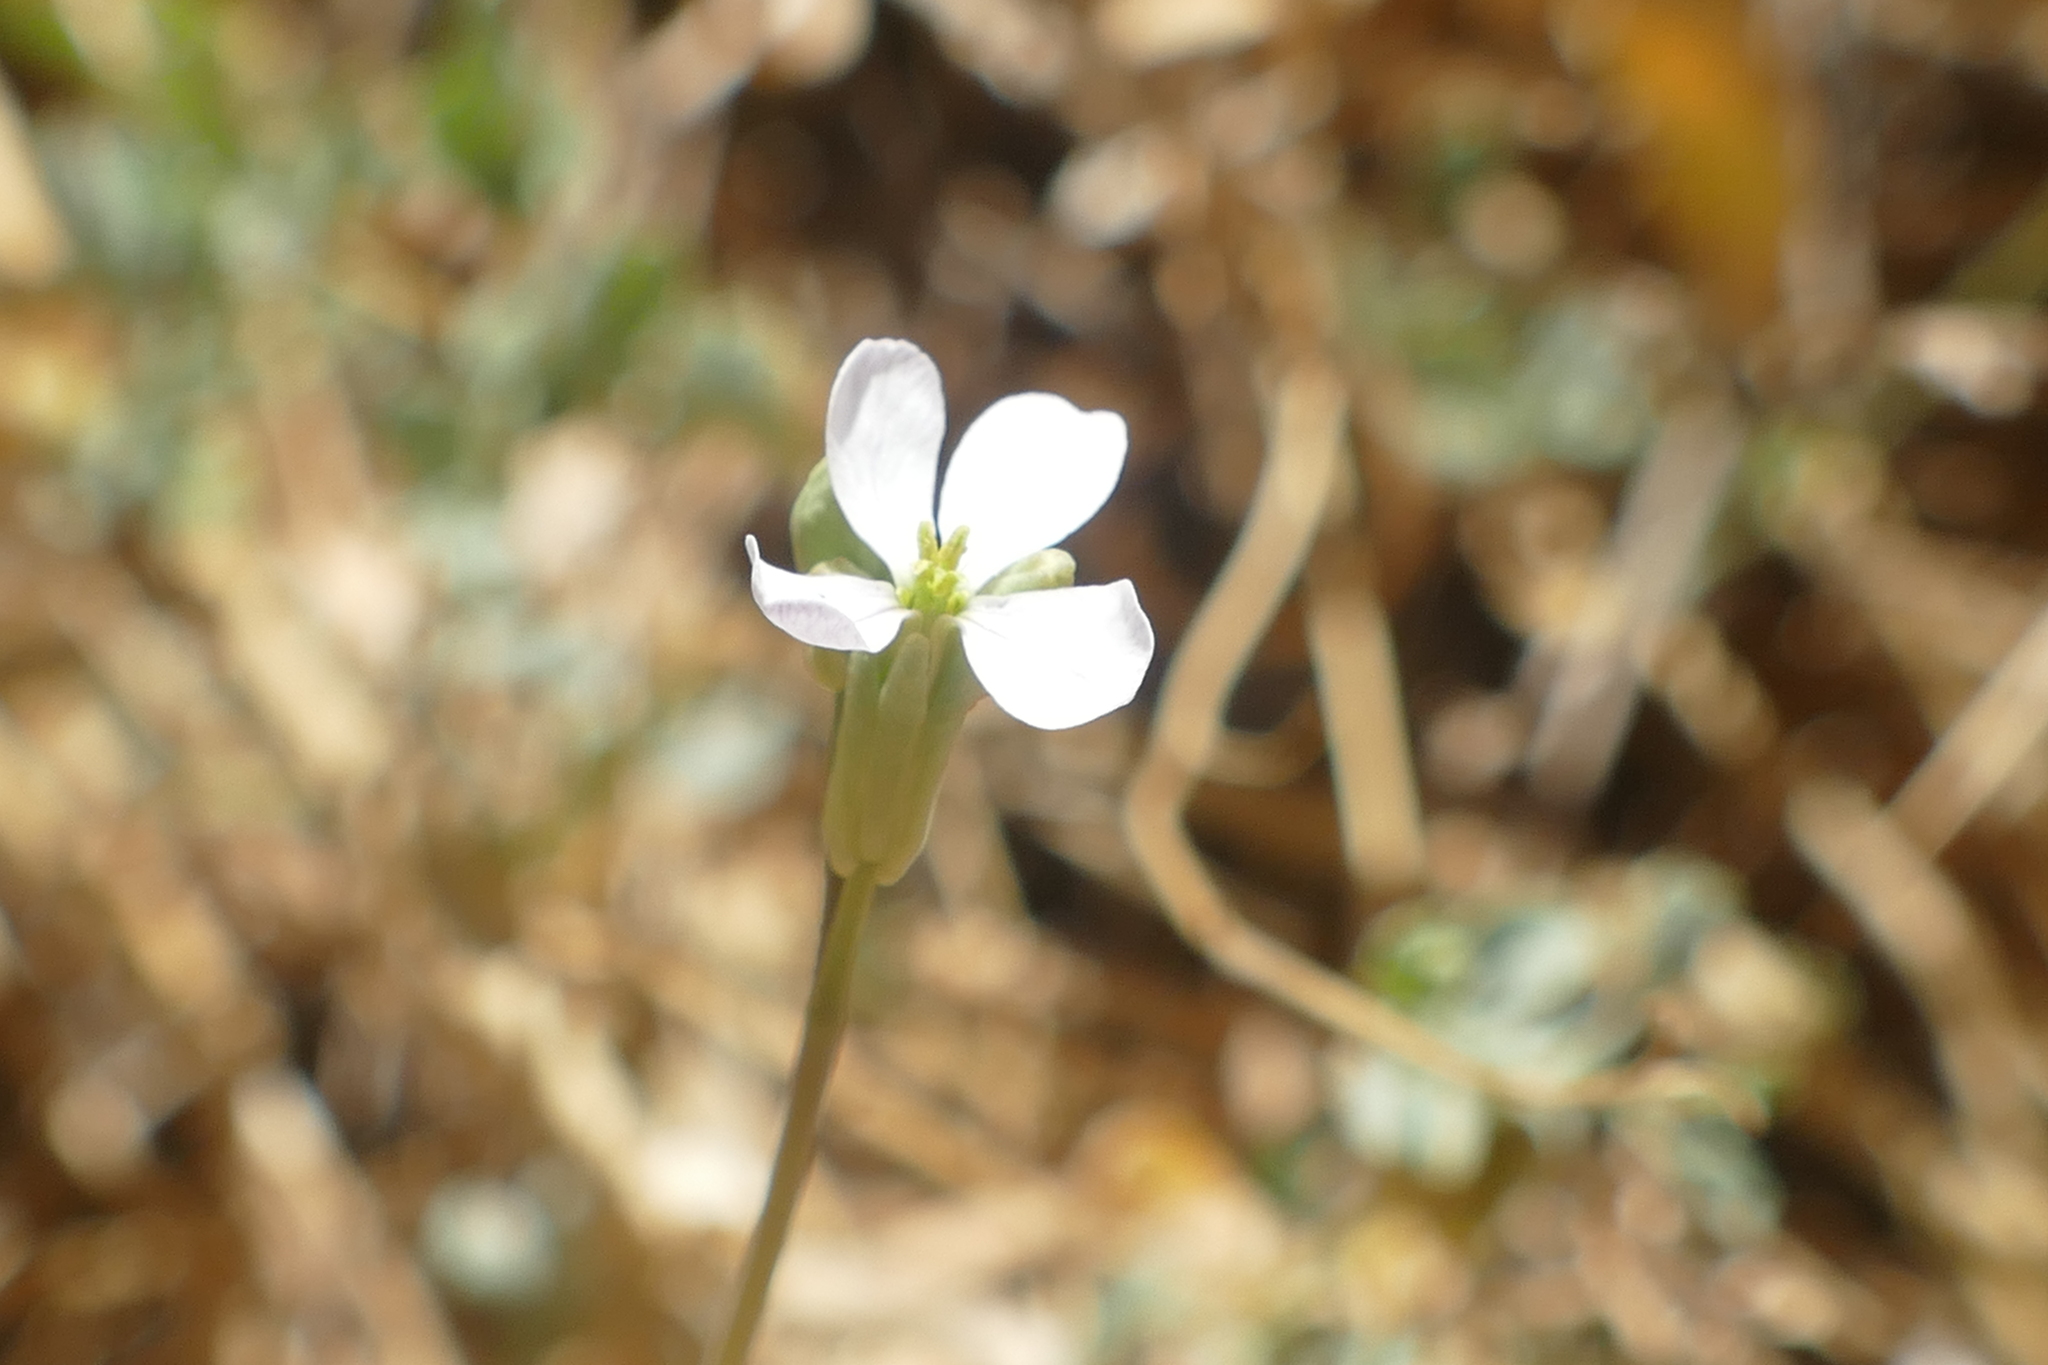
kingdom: Plantae
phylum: Tracheophyta
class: Magnoliopsida
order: Brassicales
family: Brassicaceae
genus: Moricandia
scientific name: Moricandia arvensis
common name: Purple mistress
